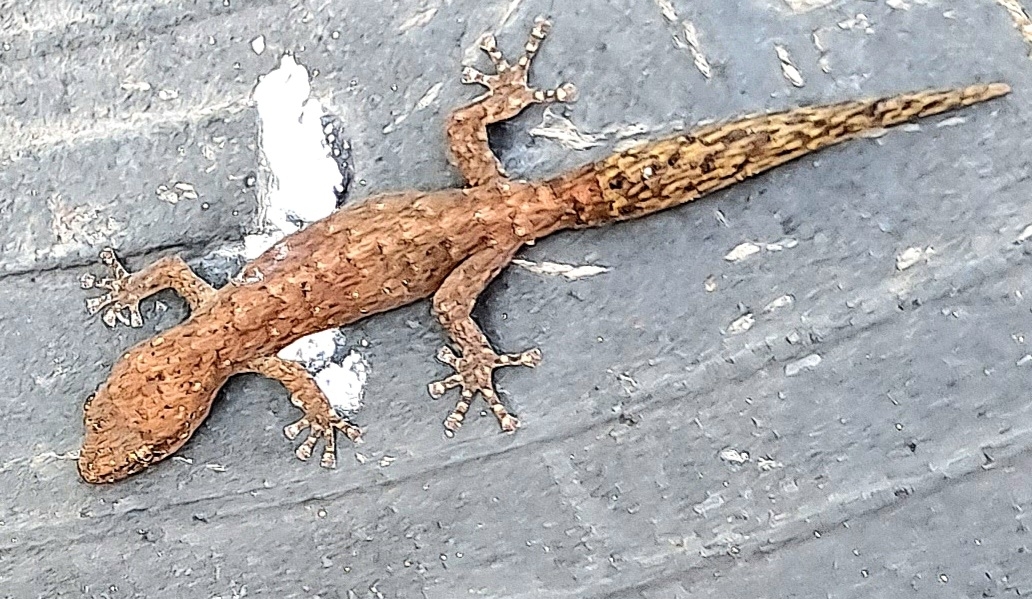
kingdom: Animalia
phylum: Chordata
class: Squamata
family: Gekkonidae
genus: Afrogecko
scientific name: Afrogecko porphyreus
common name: Marbled leaf-toed gecko
